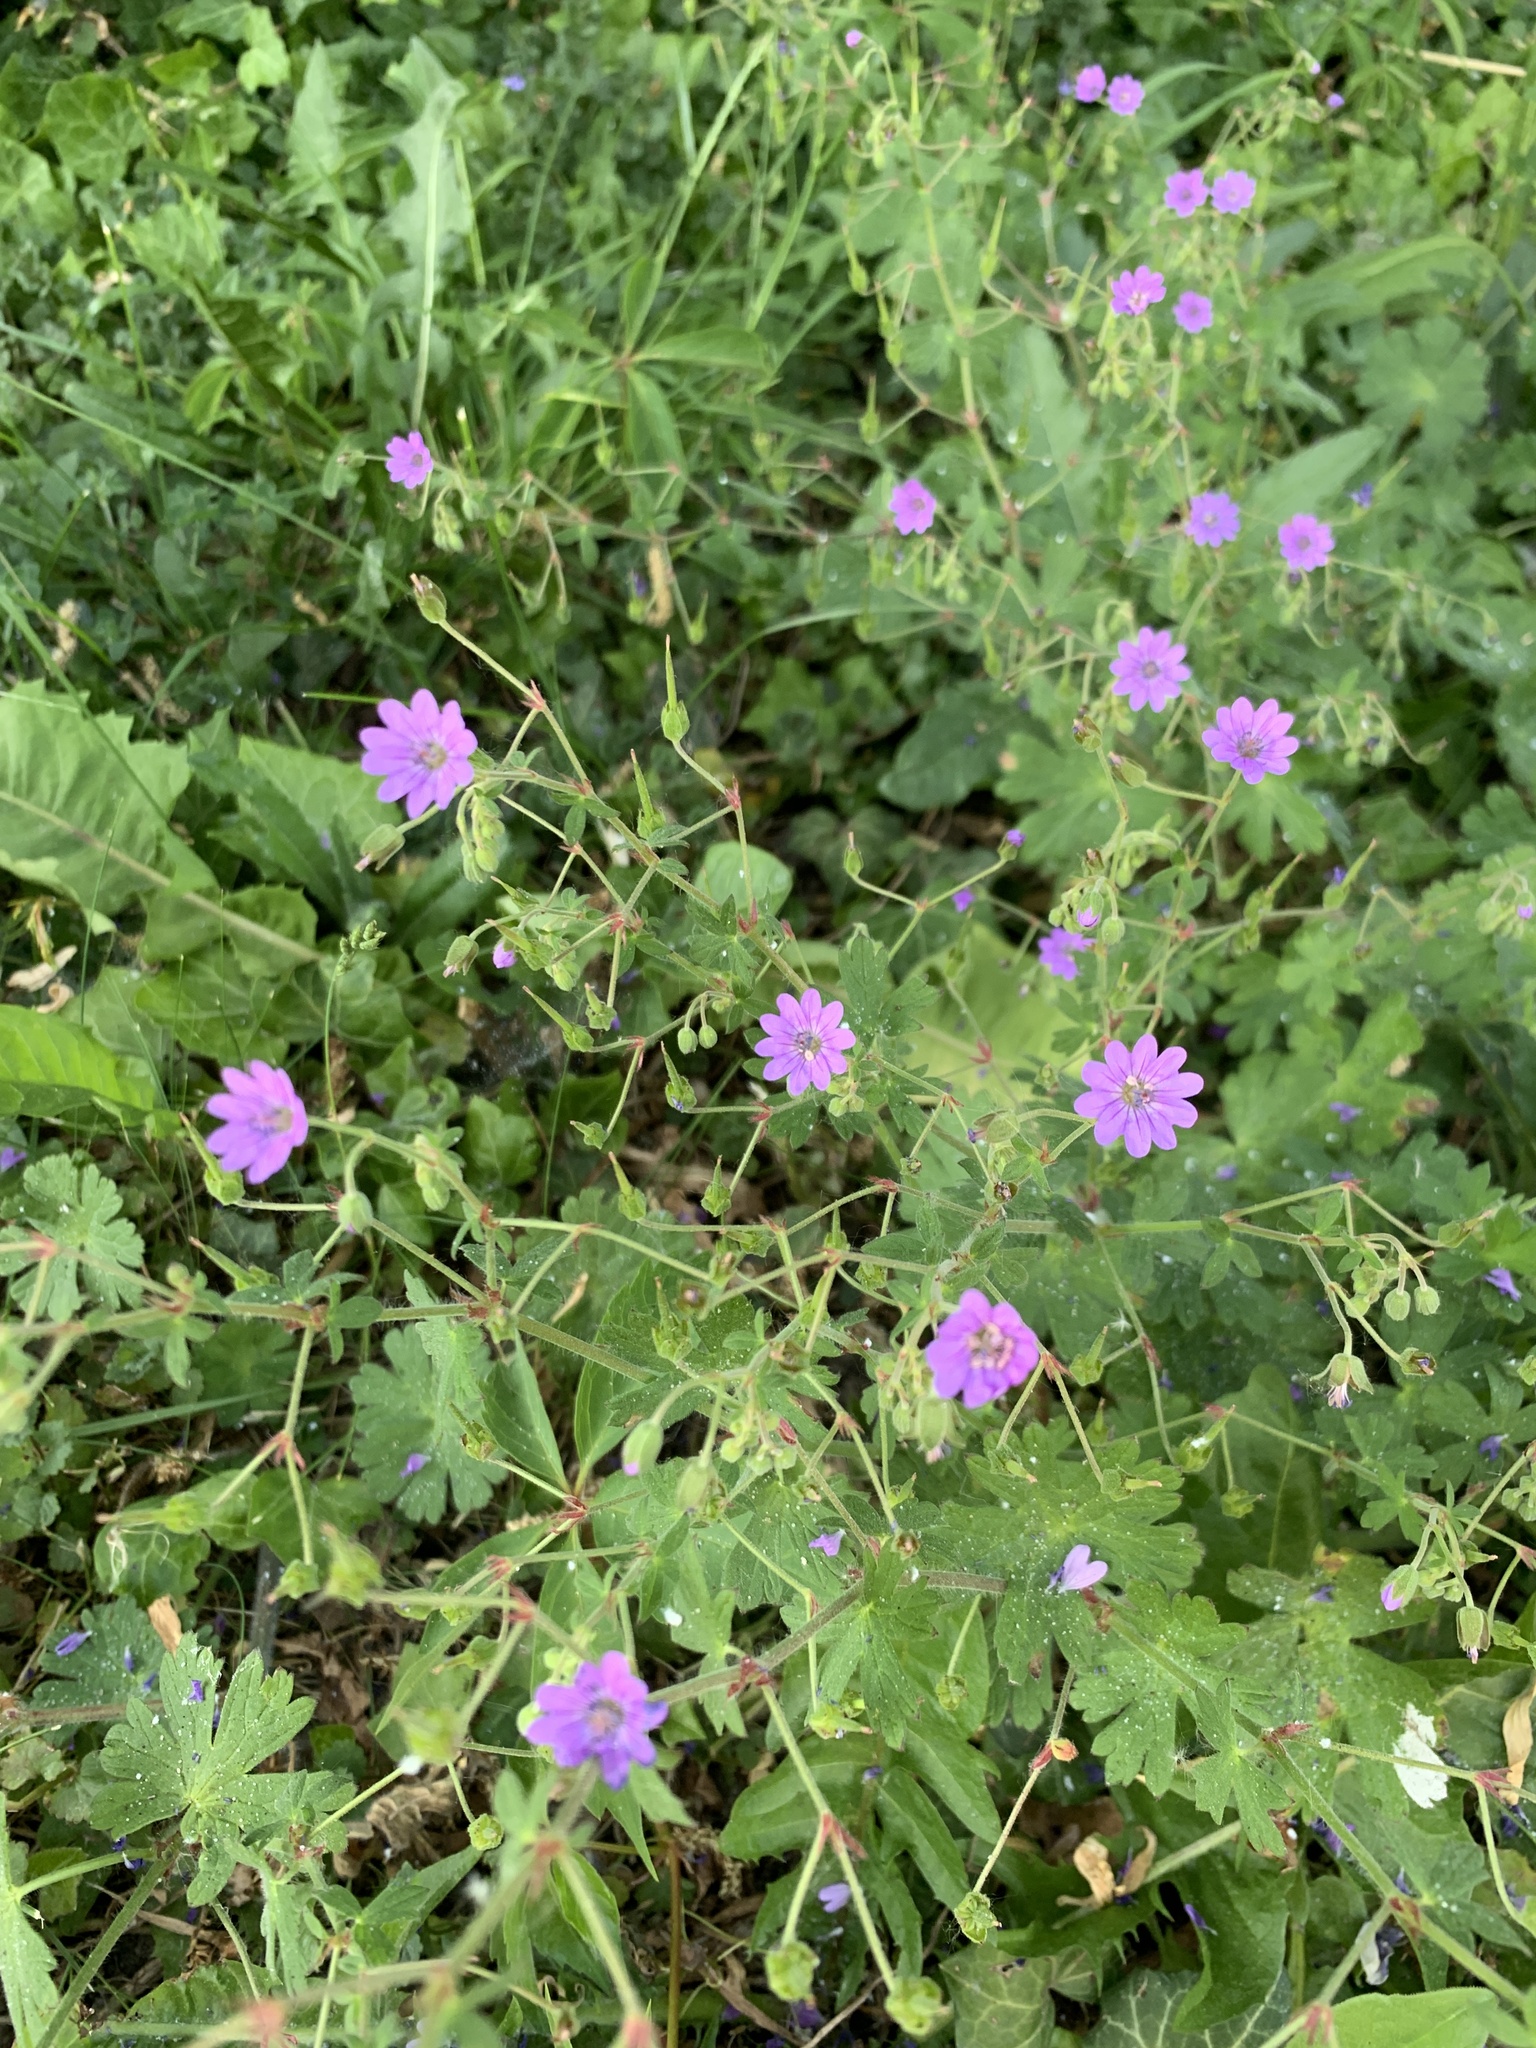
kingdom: Plantae
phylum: Tracheophyta
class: Magnoliopsida
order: Geraniales
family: Geraniaceae
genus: Geranium
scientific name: Geranium pyrenaicum
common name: Hedgerow crane's-bill
